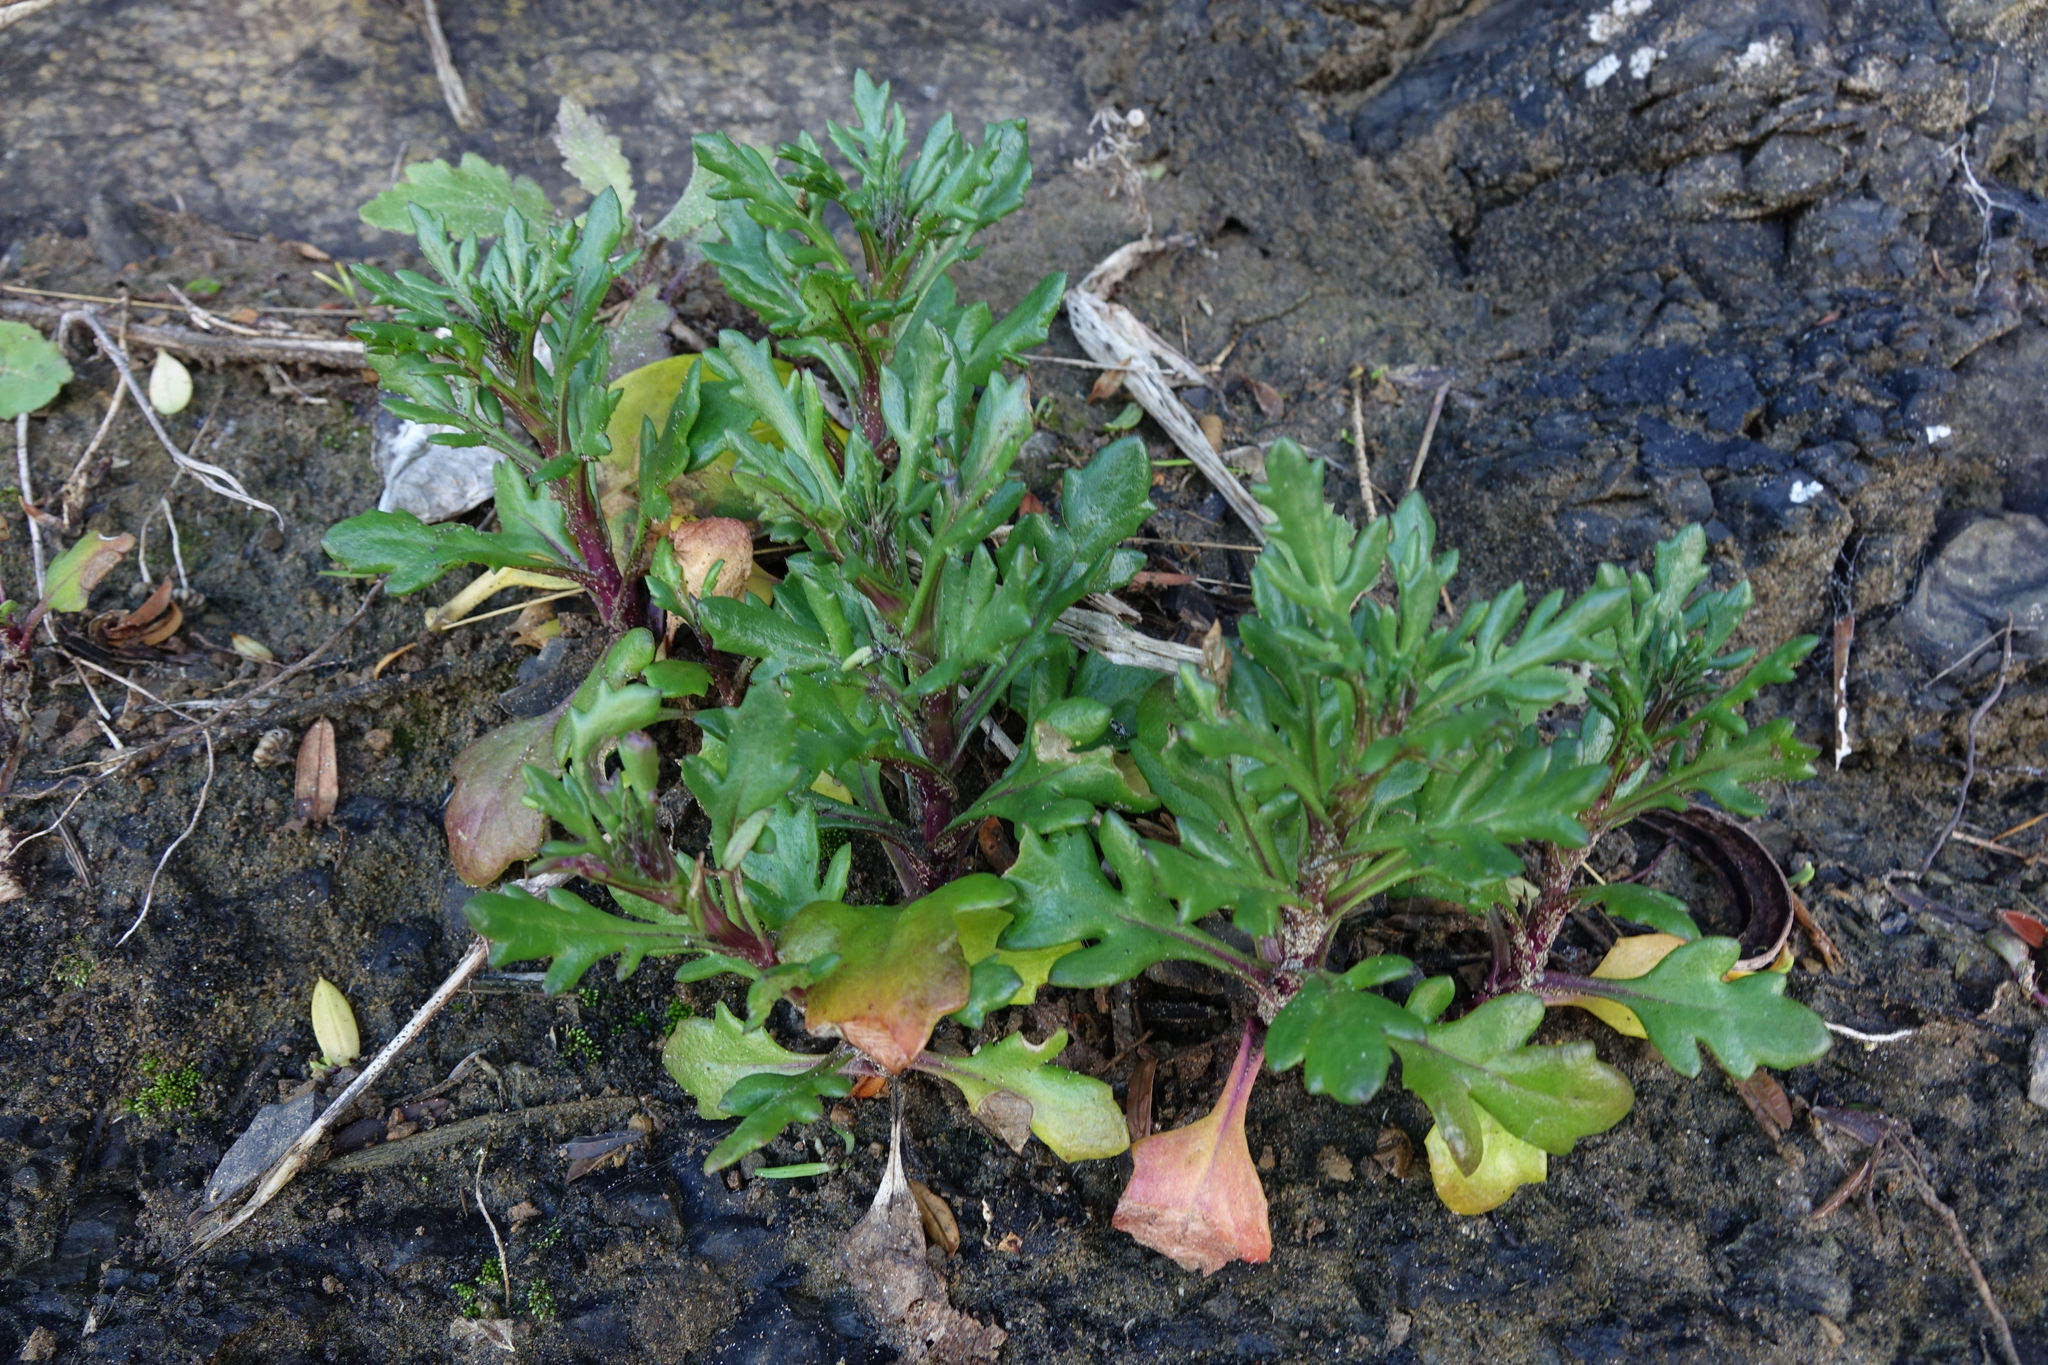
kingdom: Plantae
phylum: Tracheophyta
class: Magnoliopsida
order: Asterales
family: Asteraceae
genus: Senecio
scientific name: Senecio carnosulus
